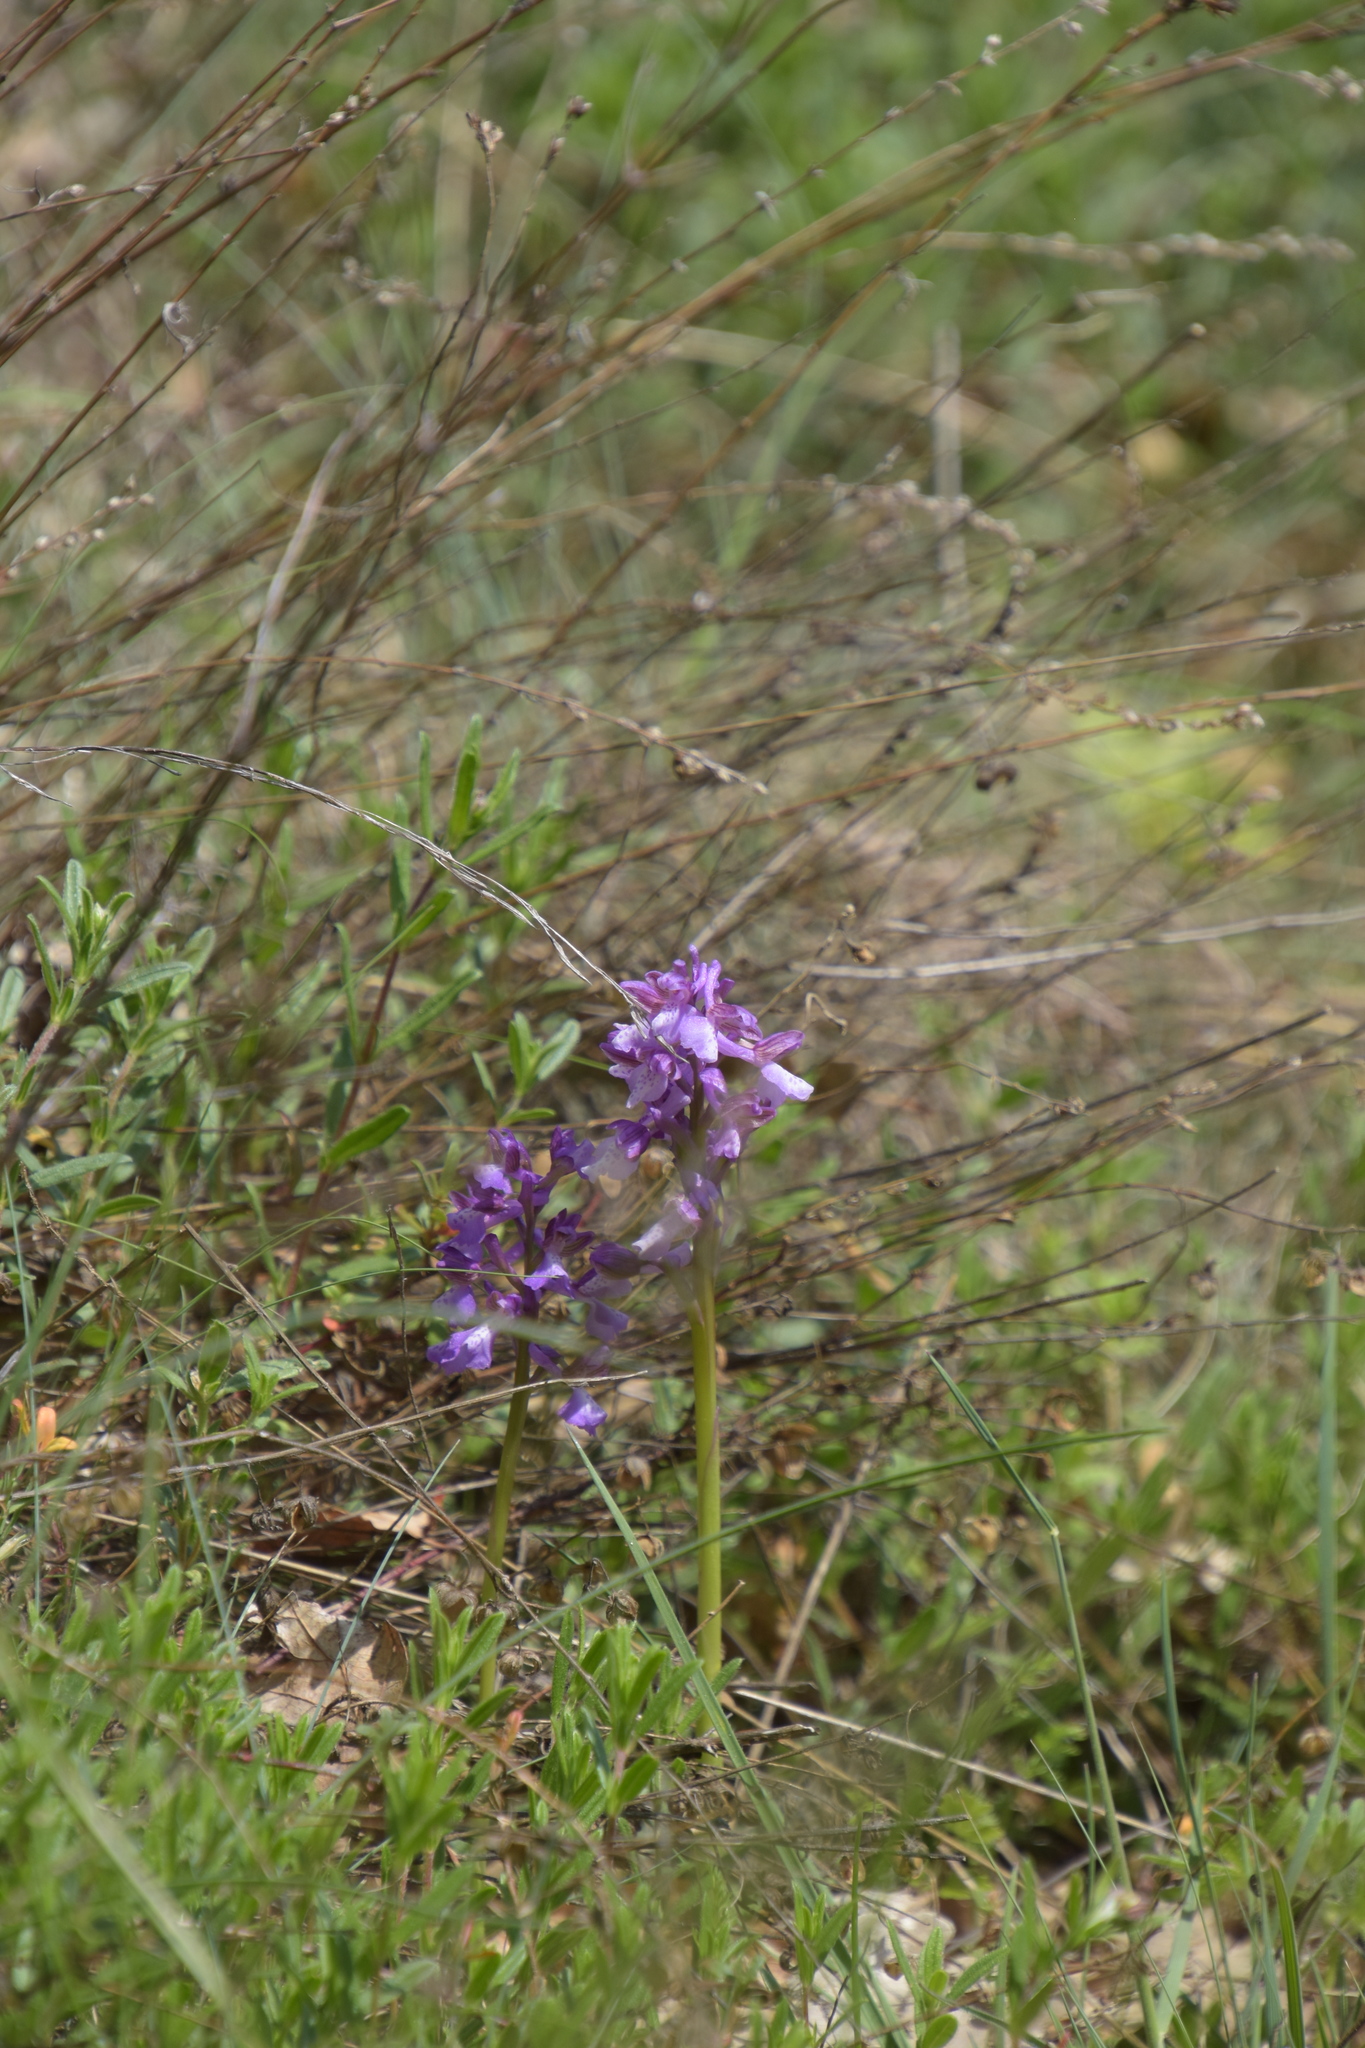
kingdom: Plantae
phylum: Tracheophyta
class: Liliopsida
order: Asparagales
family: Orchidaceae
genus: Anacamptis
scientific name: Anacamptis morio
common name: Green-winged orchid
